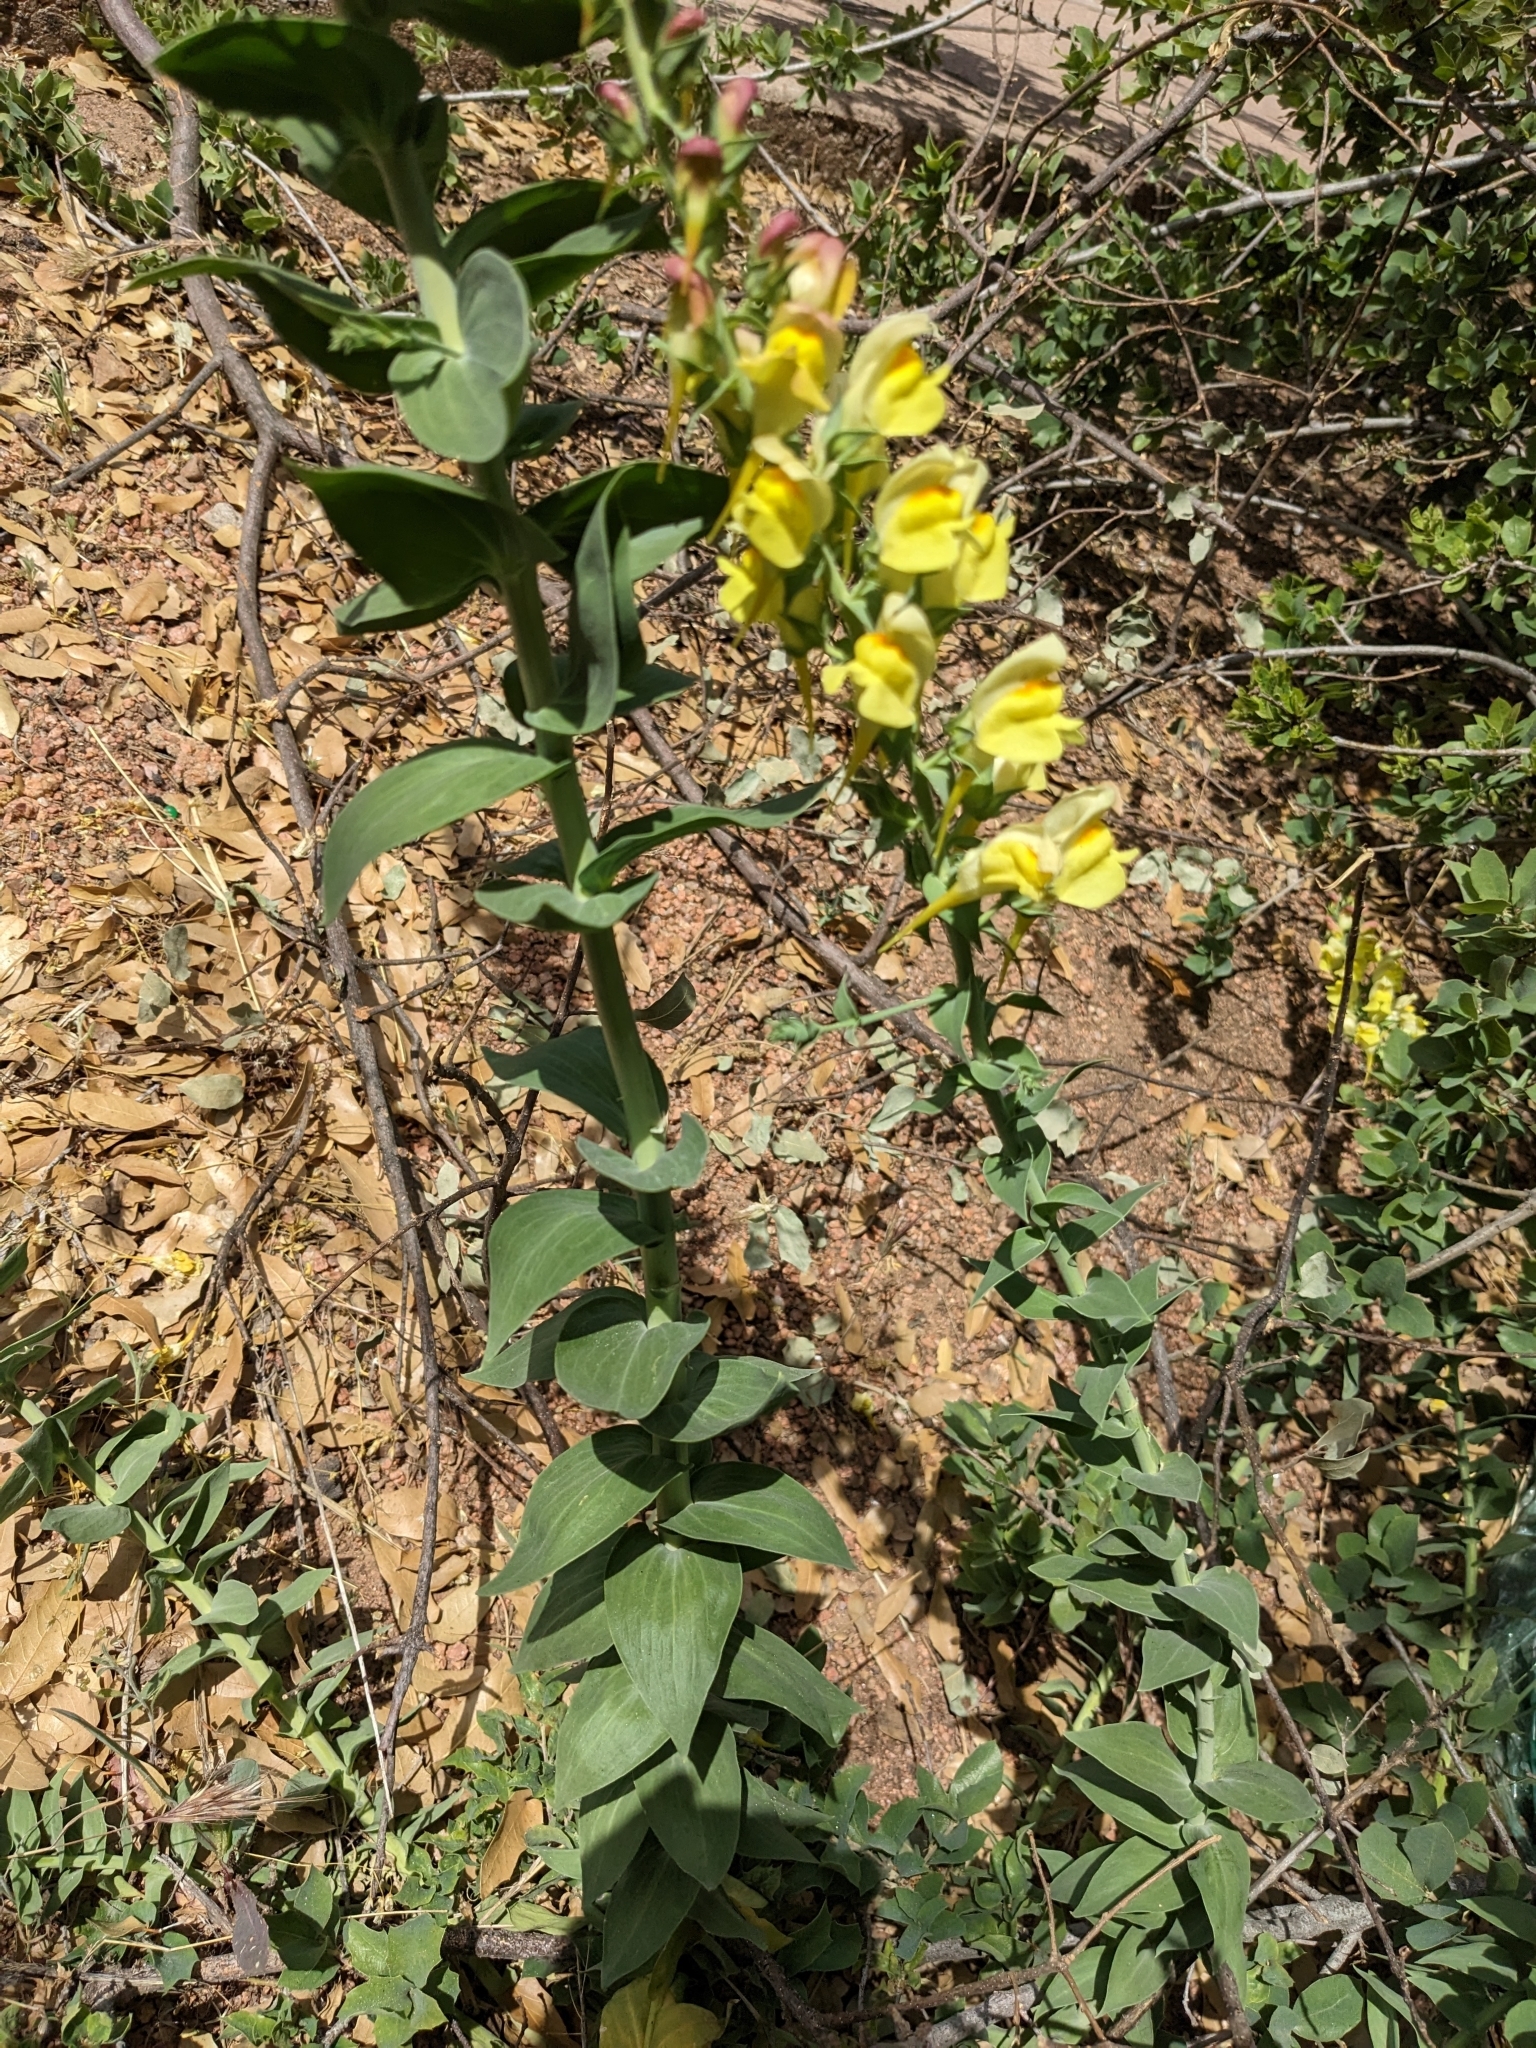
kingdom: Plantae
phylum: Tracheophyta
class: Magnoliopsida
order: Lamiales
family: Plantaginaceae
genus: Linaria
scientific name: Linaria dalmatica
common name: Dalmatian toadflax
